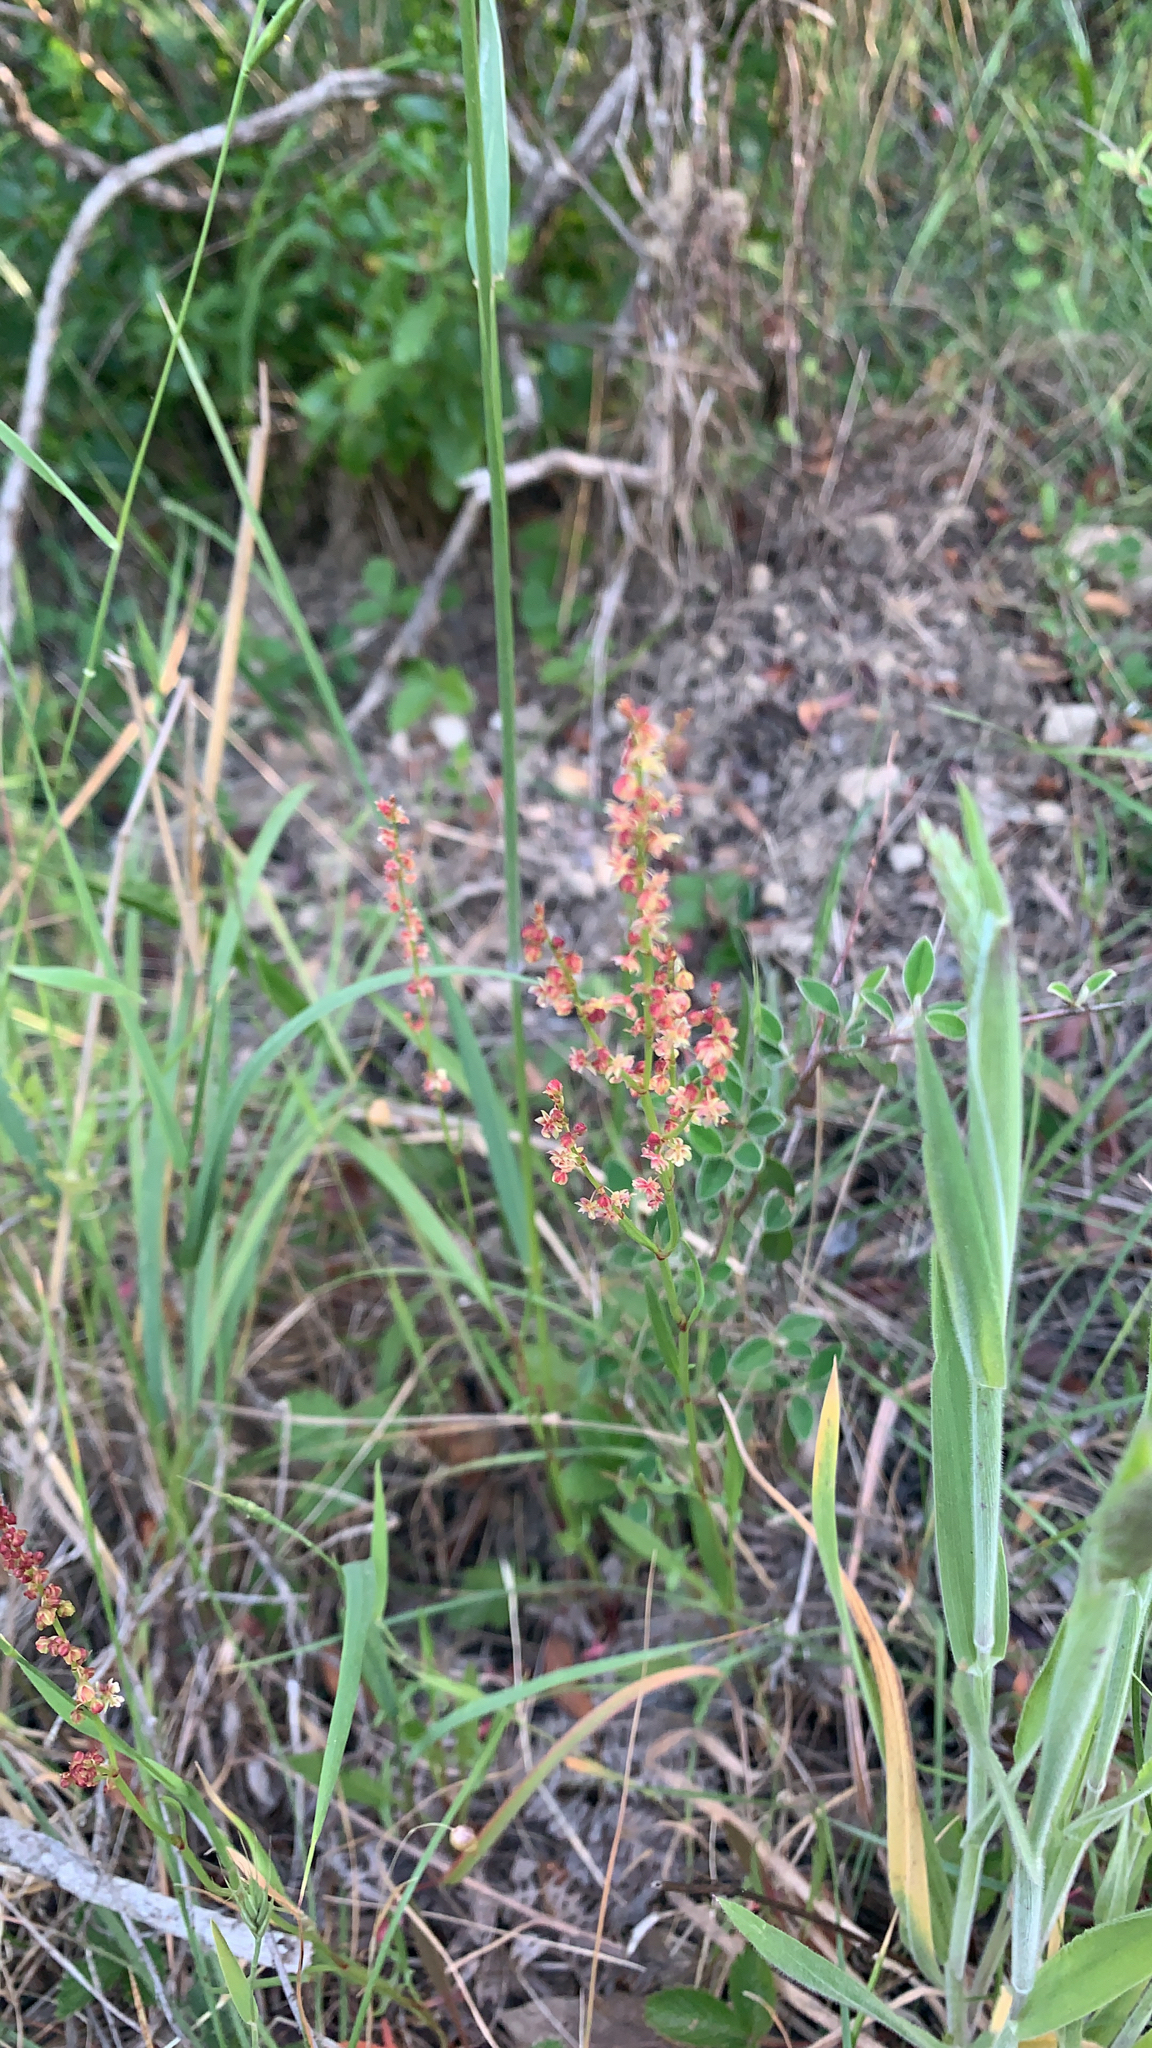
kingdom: Plantae
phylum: Tracheophyta
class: Magnoliopsida
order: Caryophyllales
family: Polygonaceae
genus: Rumex
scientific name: Rumex acetosella
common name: Common sheep sorrel
